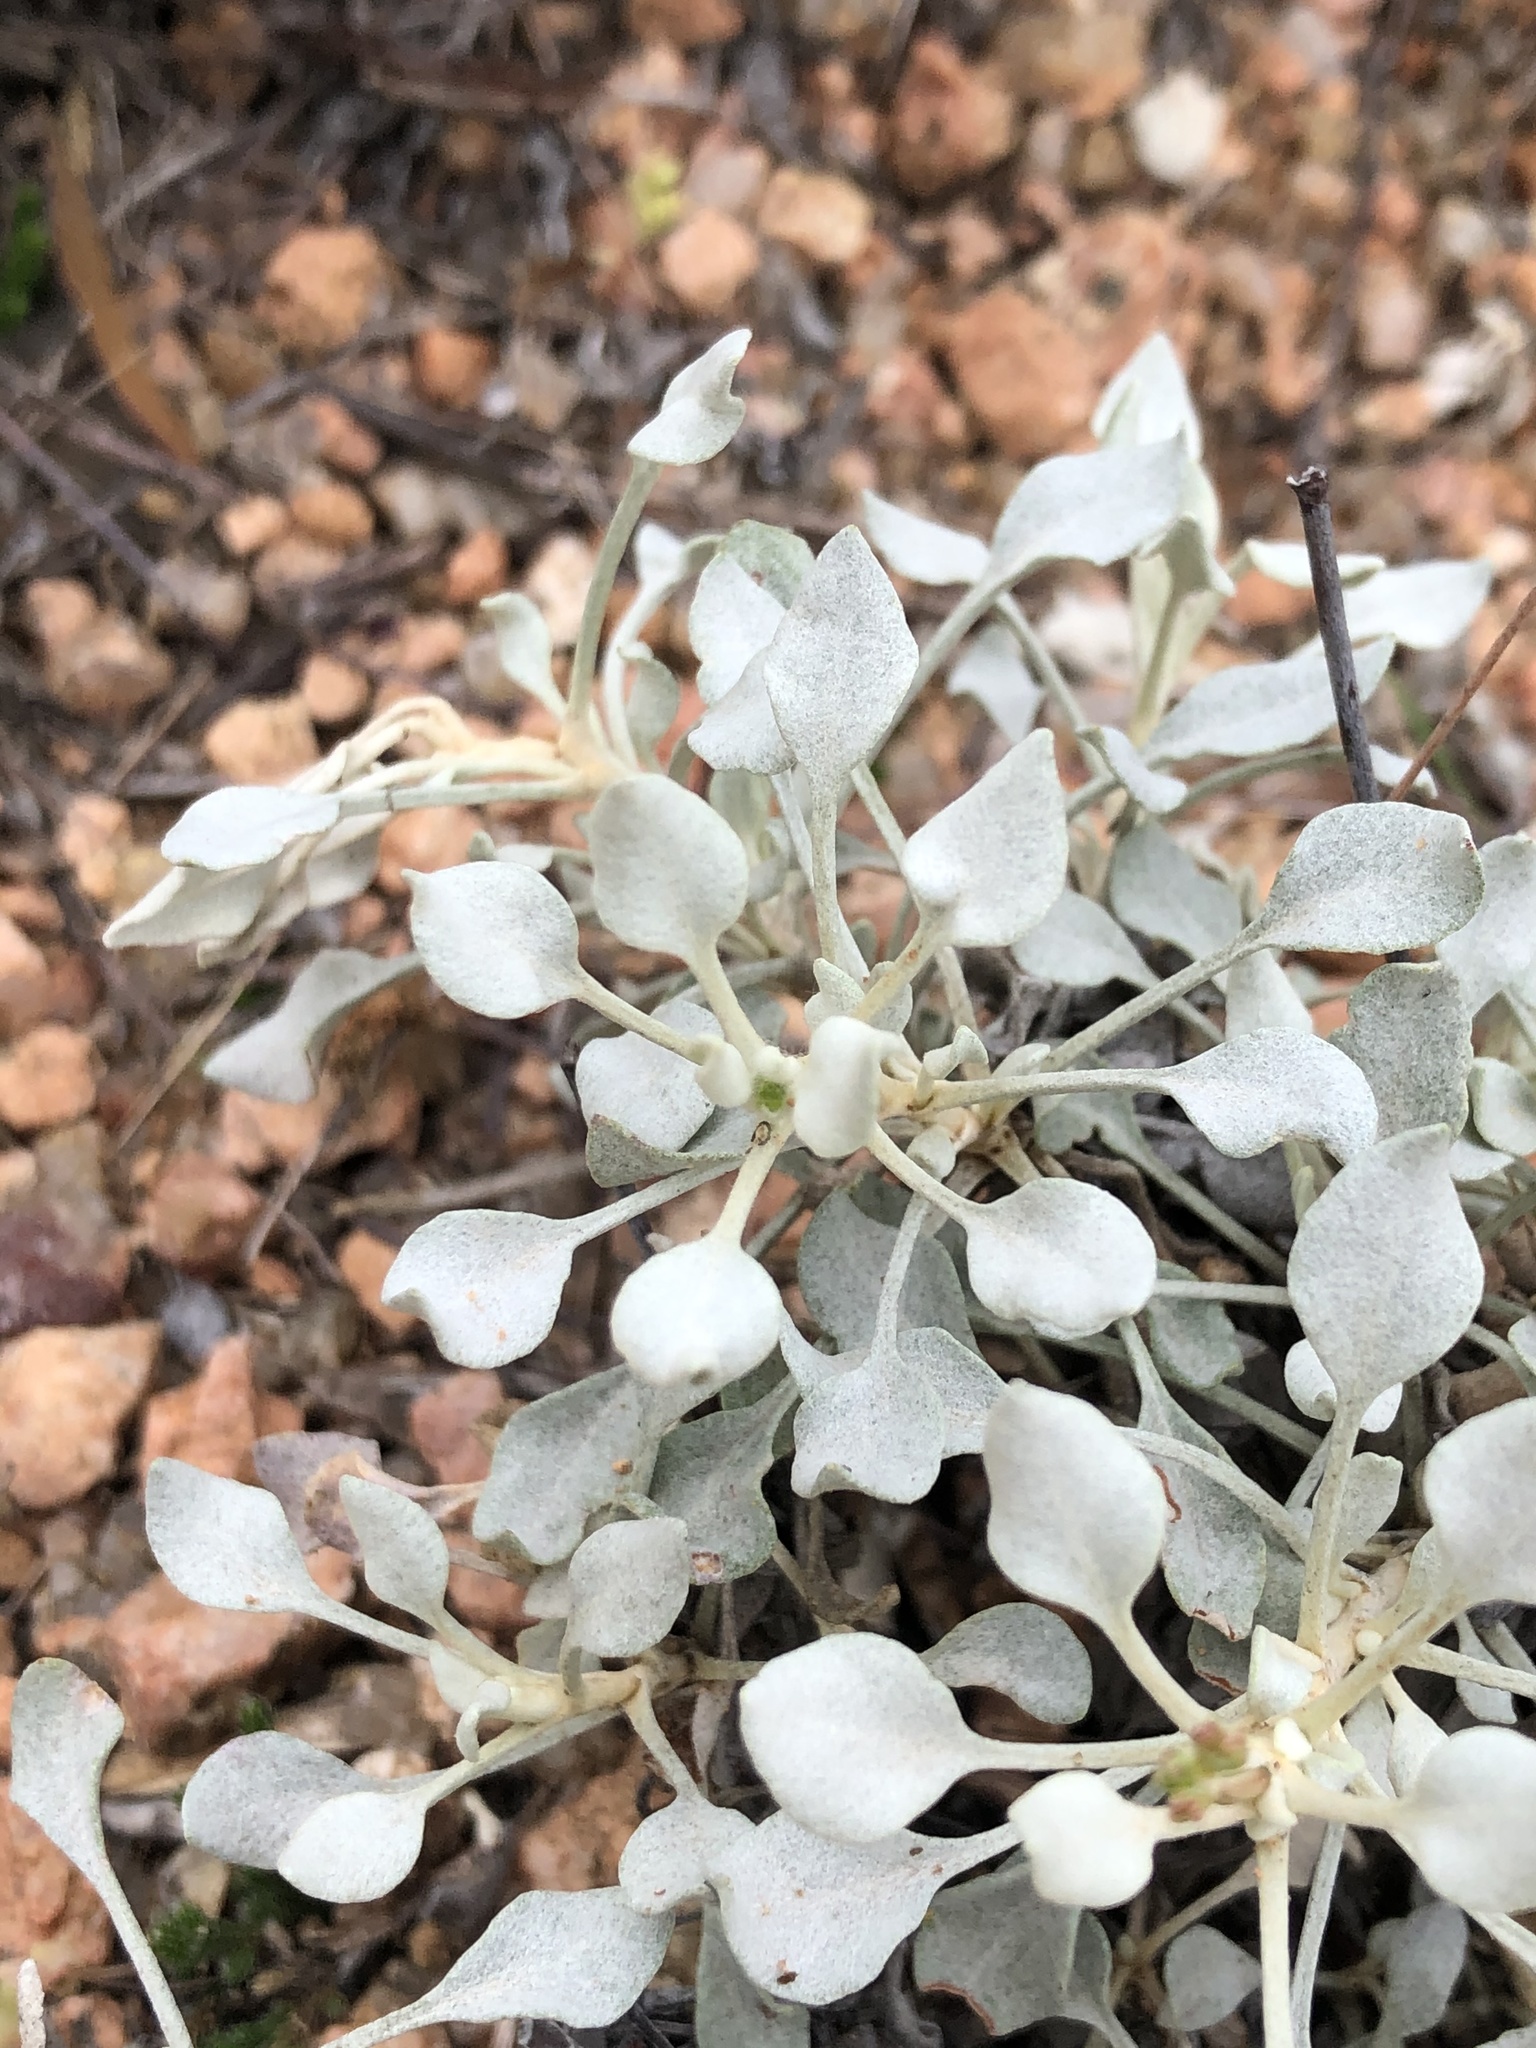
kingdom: Plantae
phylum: Tracheophyta
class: Magnoliopsida
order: Caryophyllales
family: Polygonaceae
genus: Eriogonum
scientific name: Eriogonum graniticum
